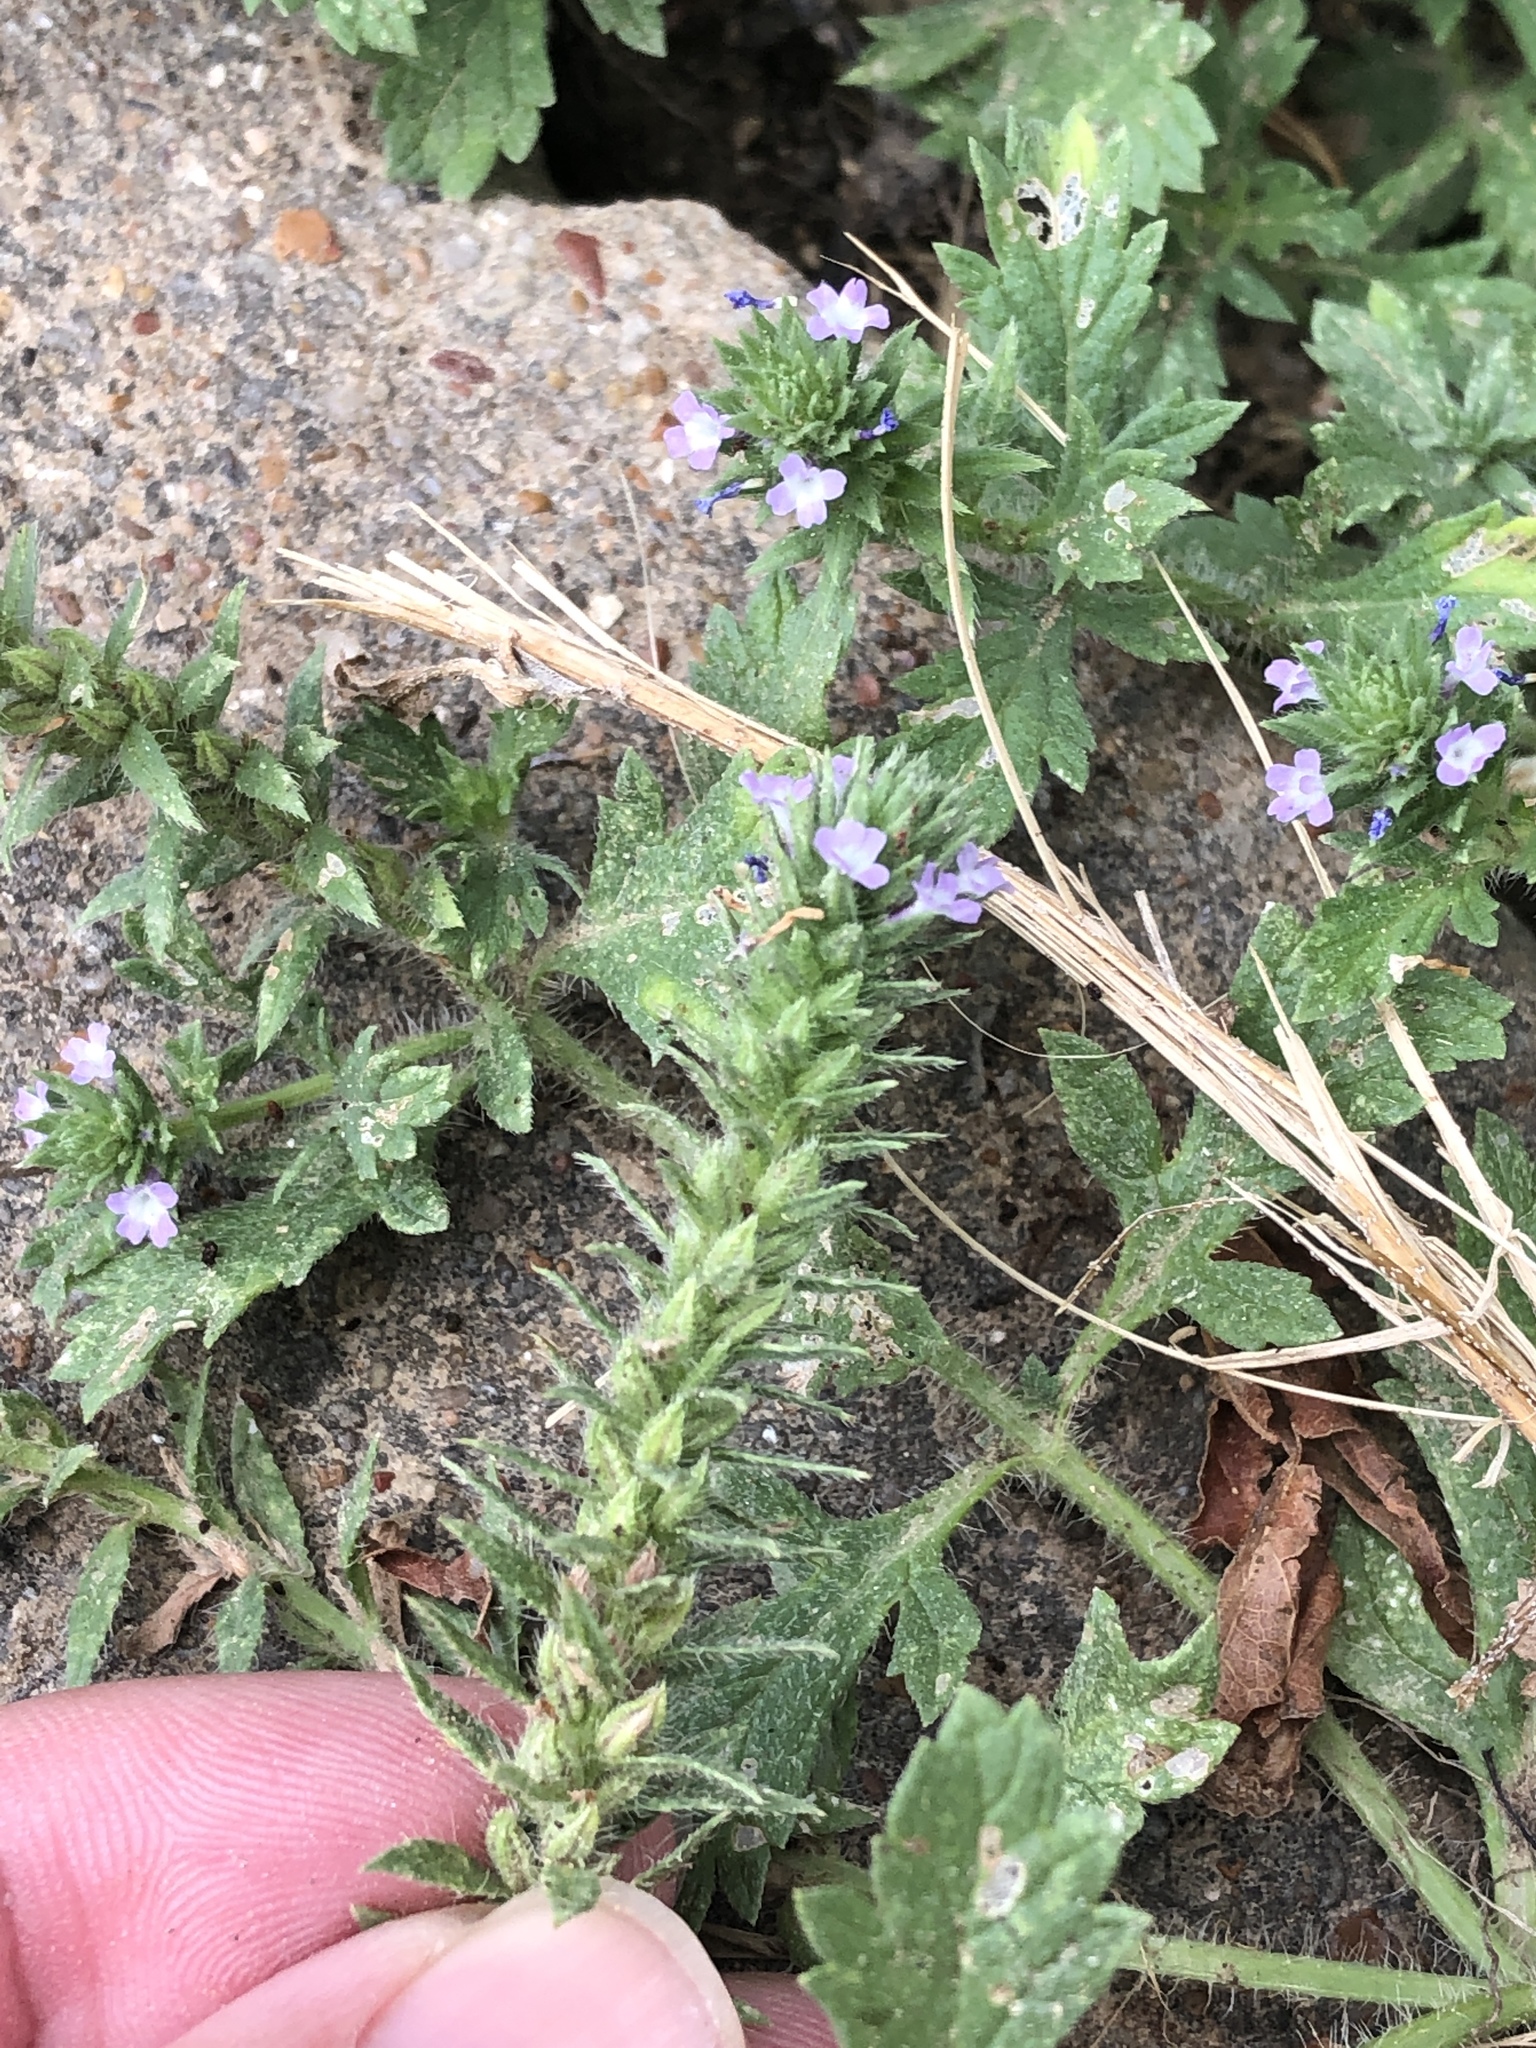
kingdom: Plantae
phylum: Tracheophyta
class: Magnoliopsida
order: Lamiales
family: Verbenaceae
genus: Verbena
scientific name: Verbena bracteata
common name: Bracted vervain
